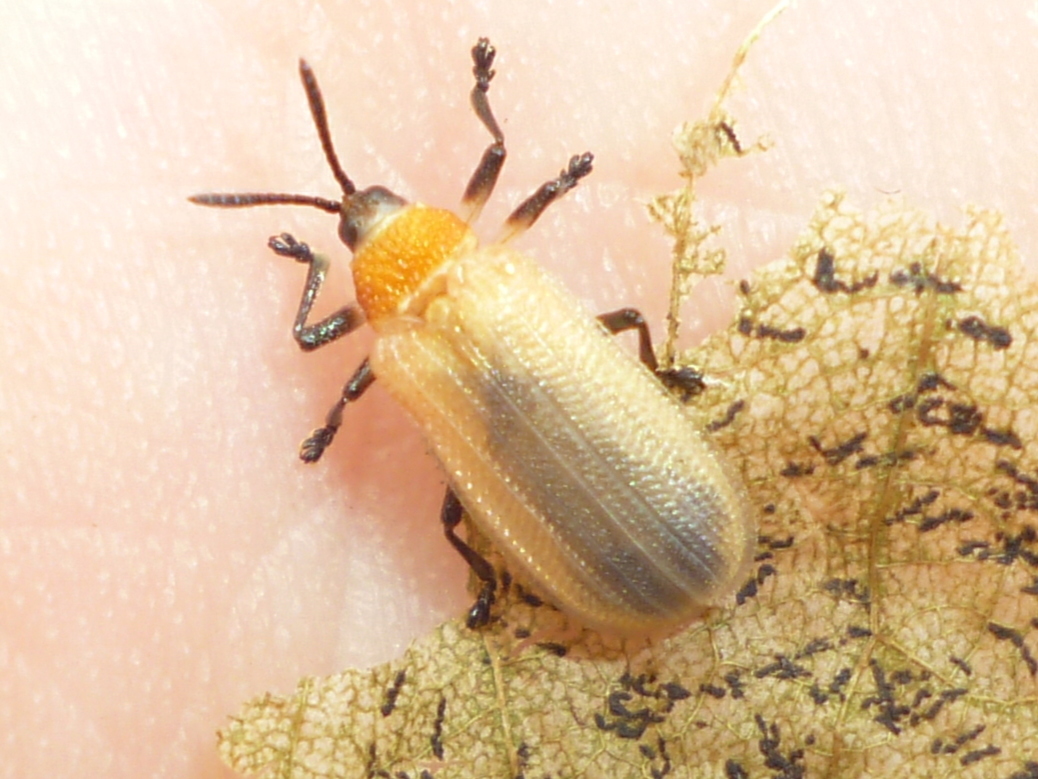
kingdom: Animalia
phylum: Arthropoda
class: Insecta
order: Coleoptera
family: Chrysomelidae
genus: Odontota
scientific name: Odontota dorsalis
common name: Locust leaf-miner beetle
